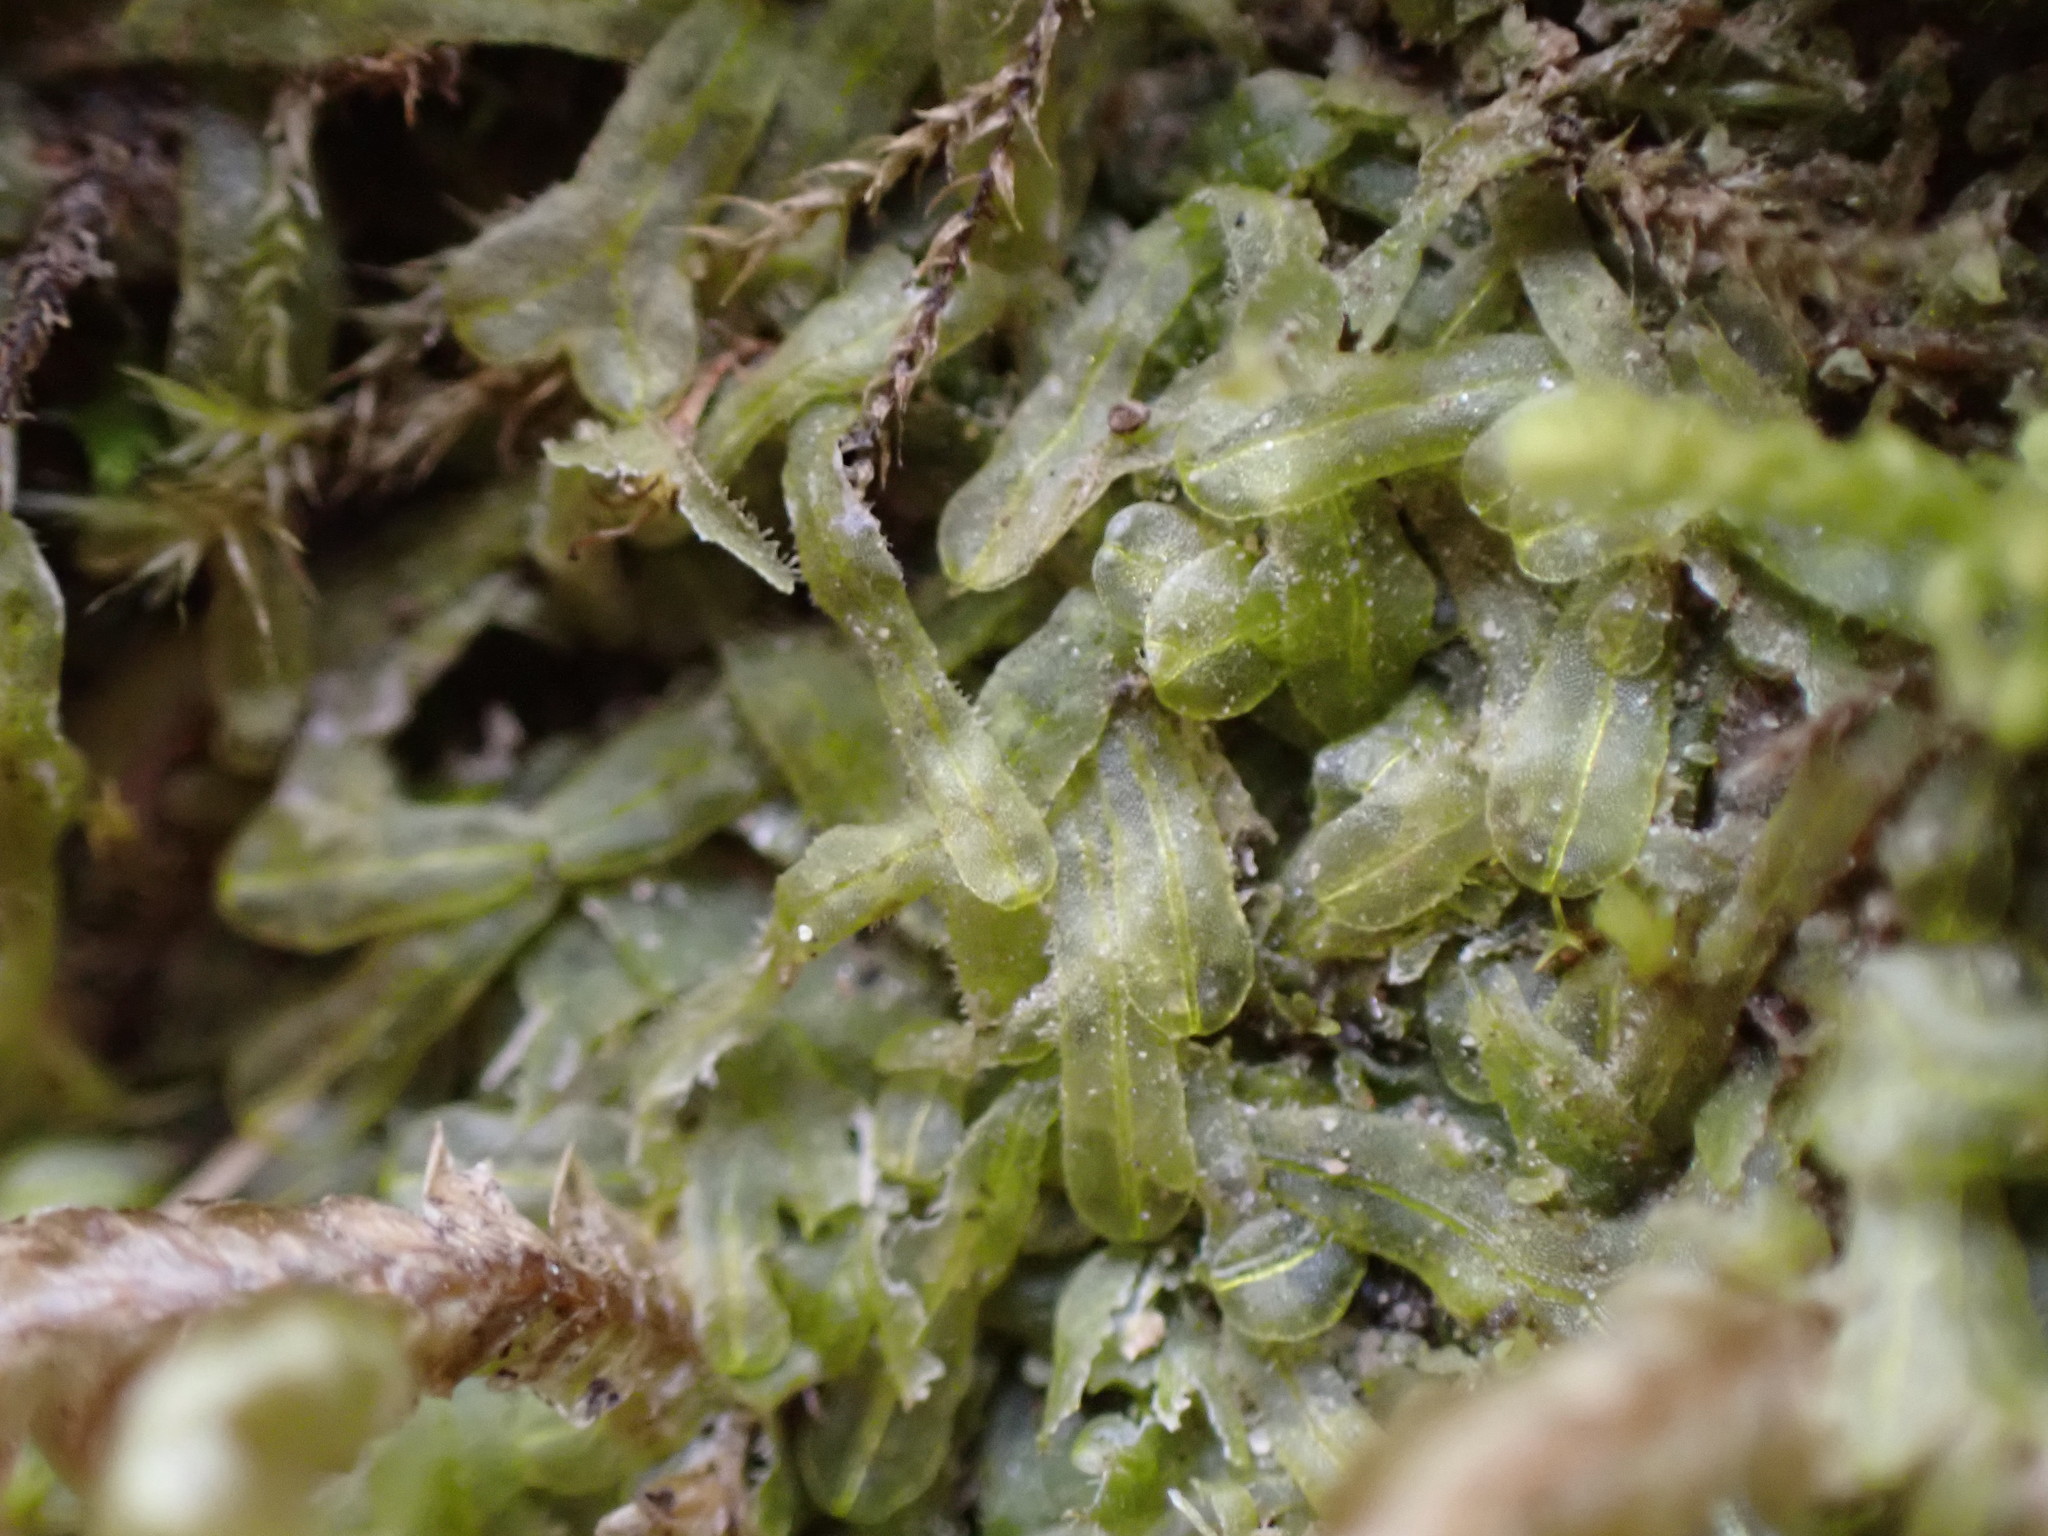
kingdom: Plantae
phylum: Marchantiophyta
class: Jungermanniopsida
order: Metzgeriales
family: Metzgeriaceae
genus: Metzgeria
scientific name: Metzgeria conjugata
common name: Rock veilwort
